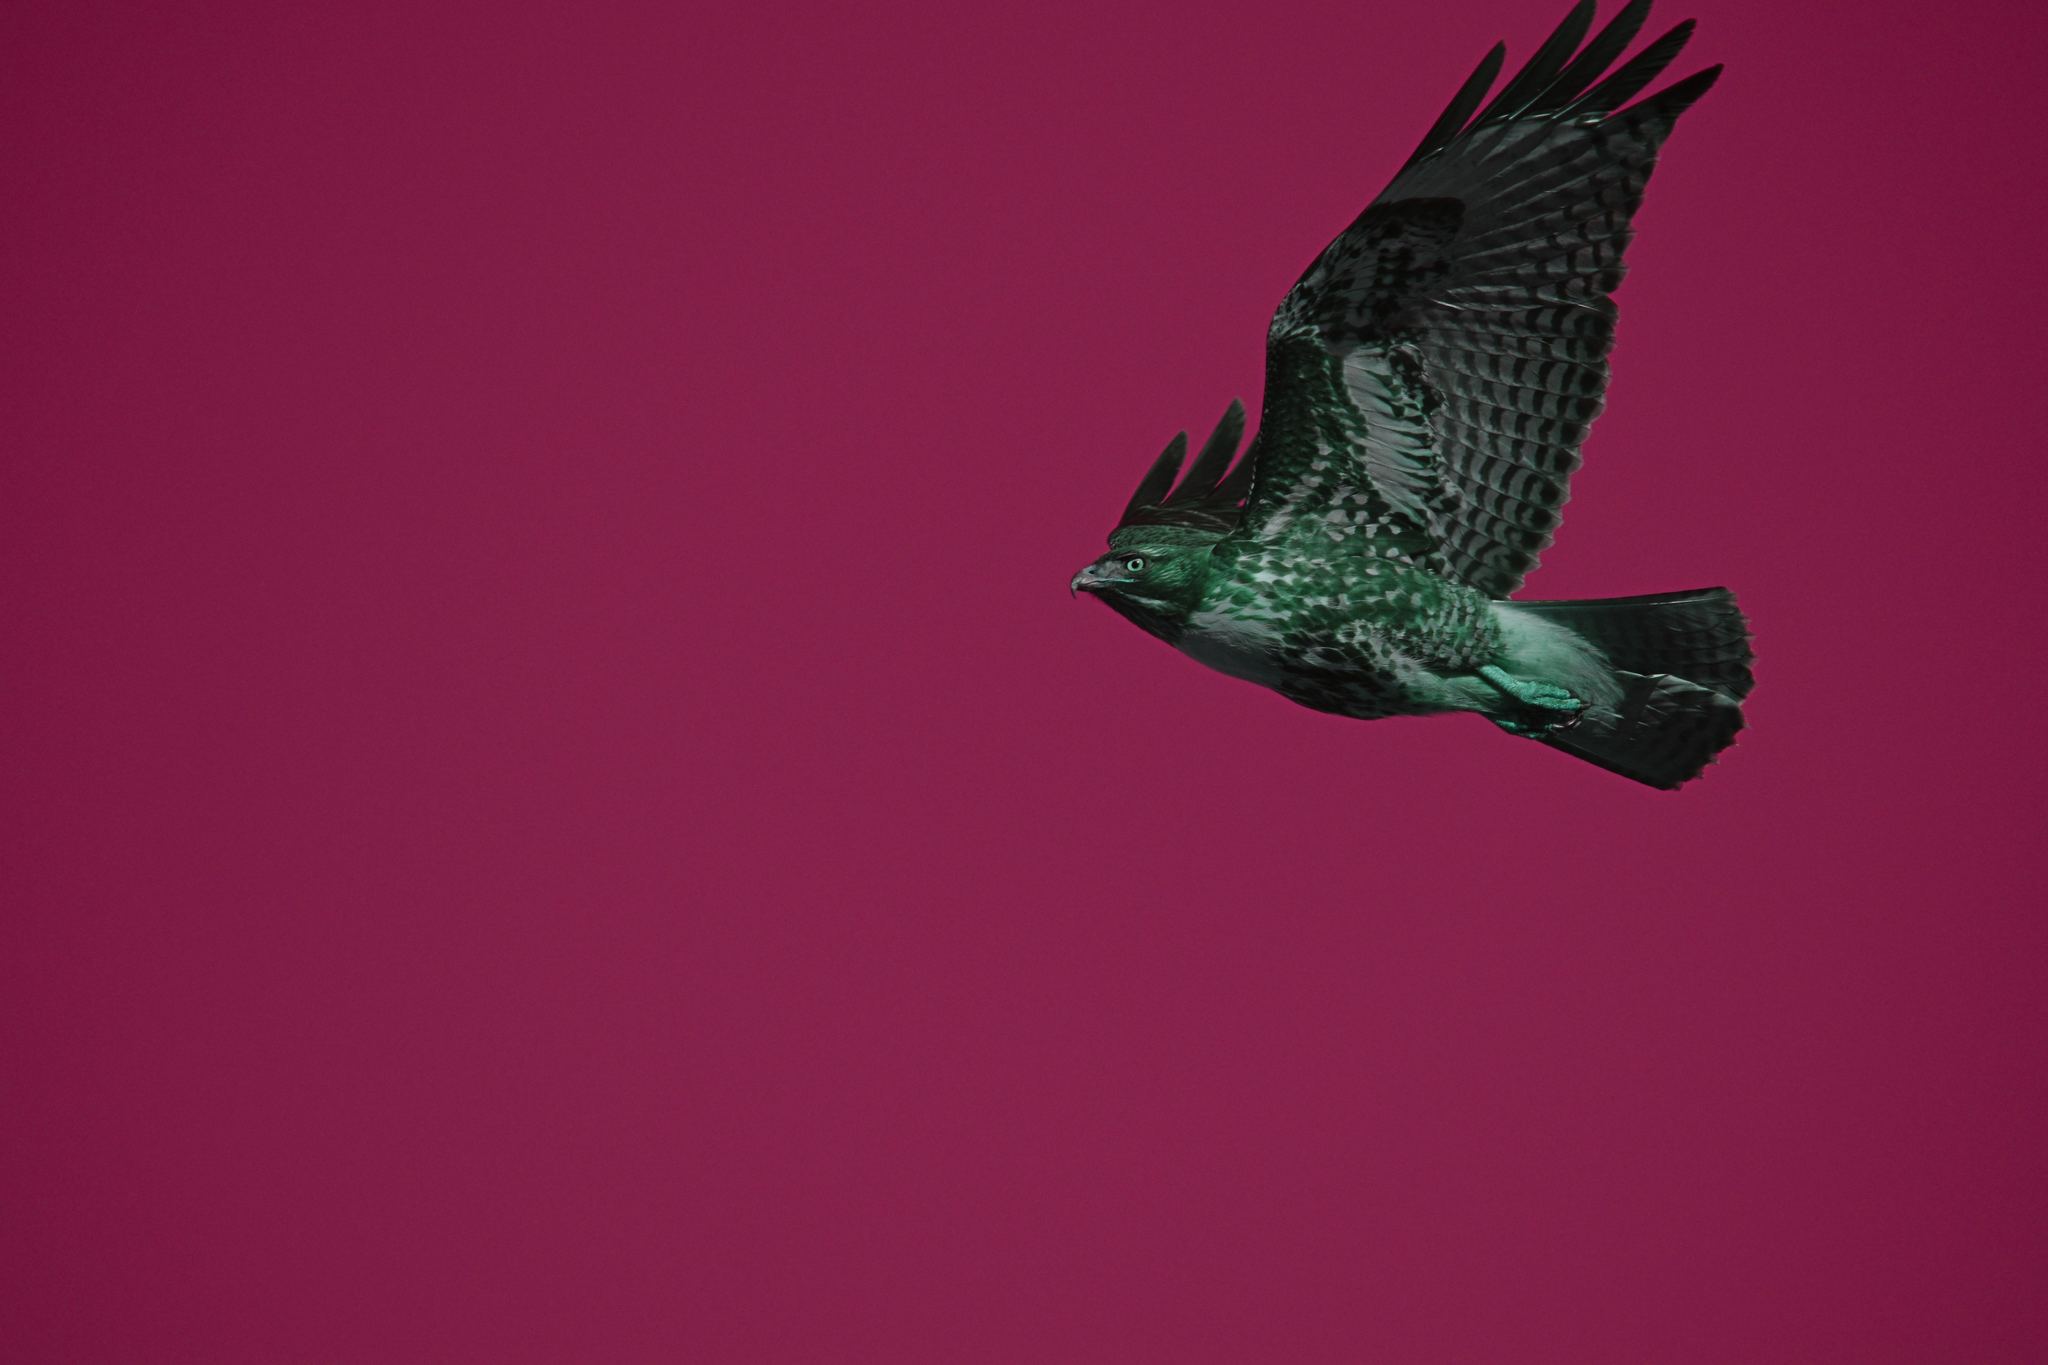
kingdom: Animalia
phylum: Chordata
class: Aves
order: Accipitriformes
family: Accipitridae
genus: Buteo
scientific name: Buteo jamaicensis
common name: Red-tailed hawk
